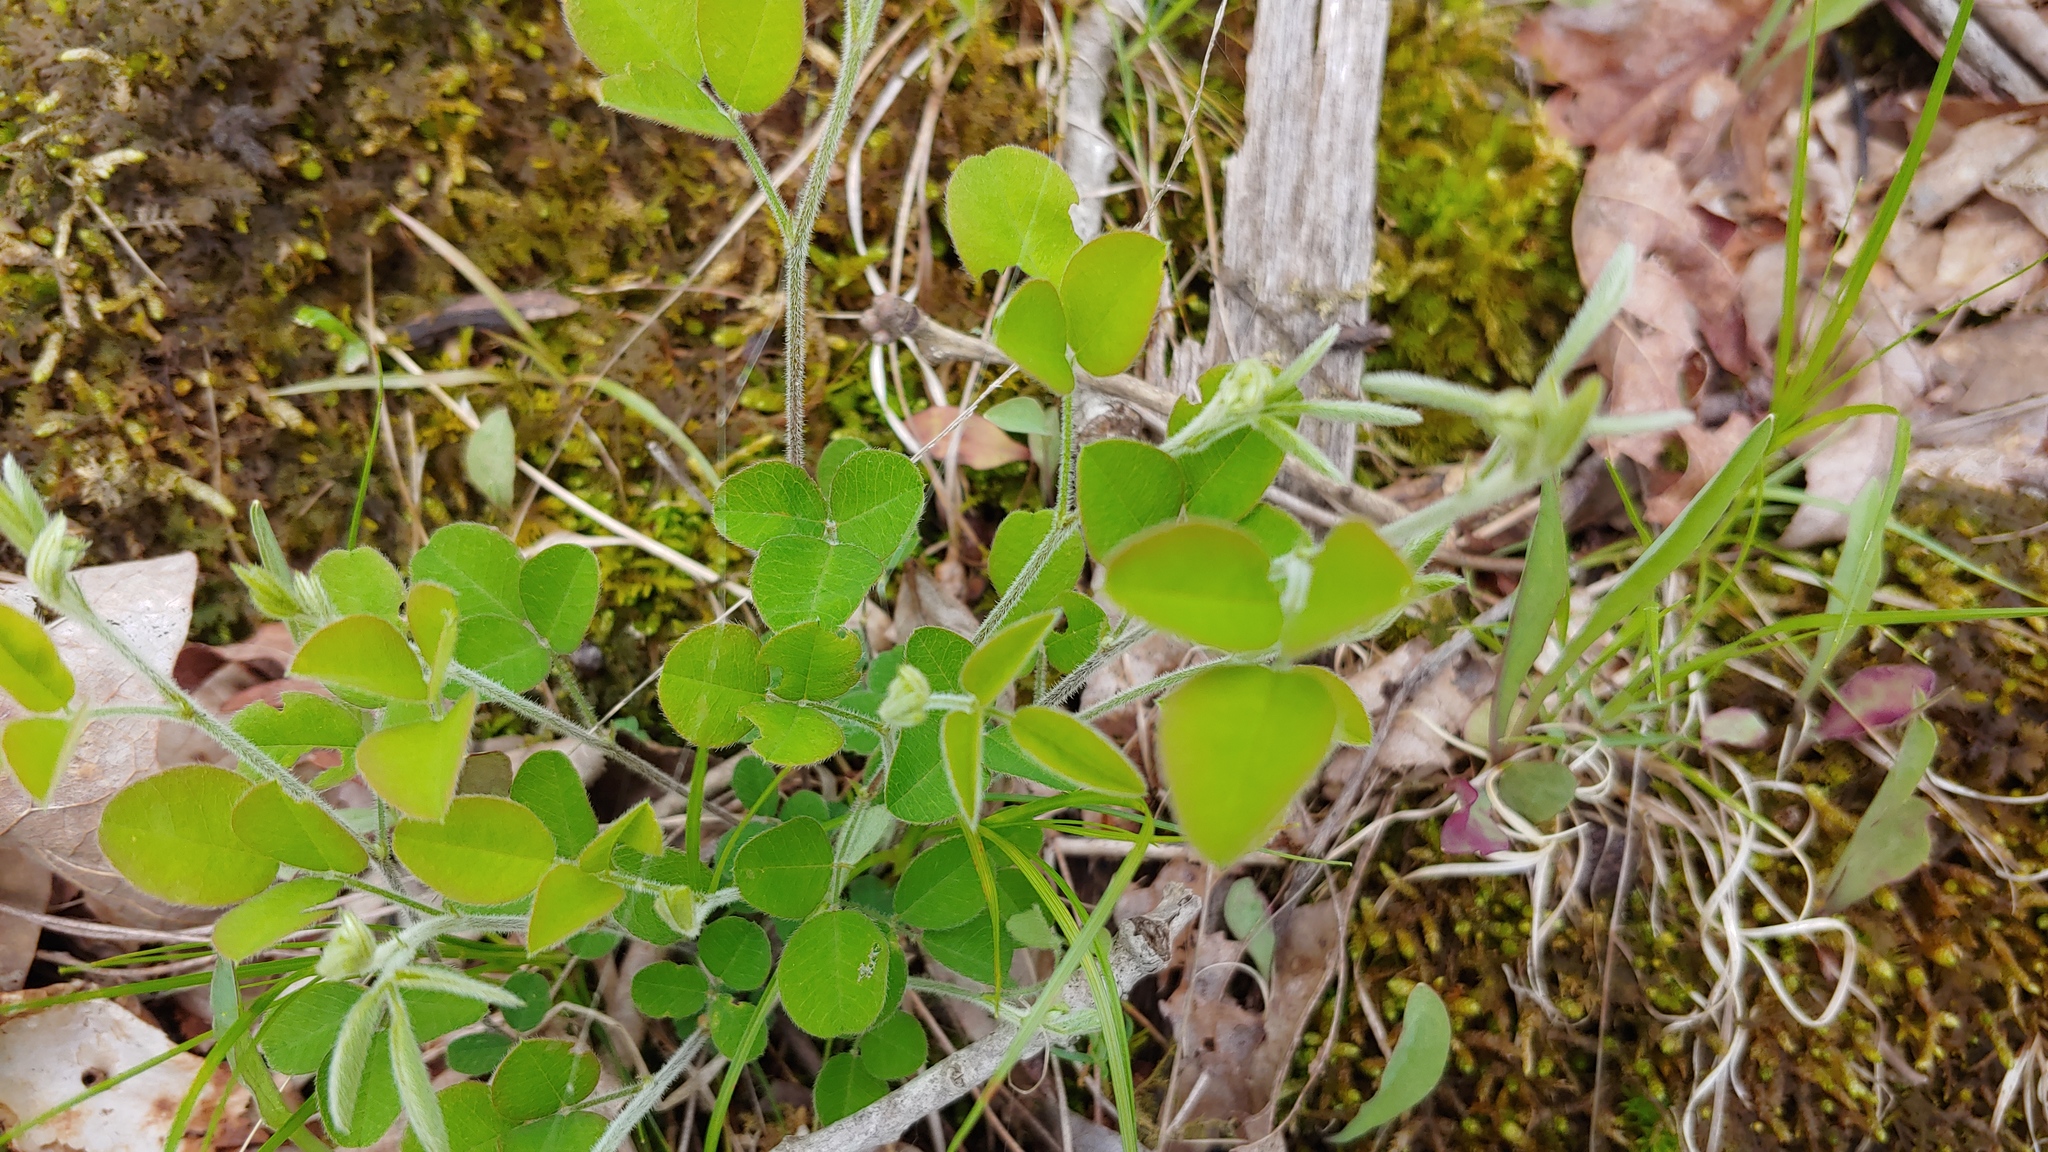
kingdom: Plantae
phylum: Tracheophyta
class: Magnoliopsida
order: Fabales
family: Fabaceae
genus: Lespedeza
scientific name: Lespedeza procumbens
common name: Downy trailing bush-clover
